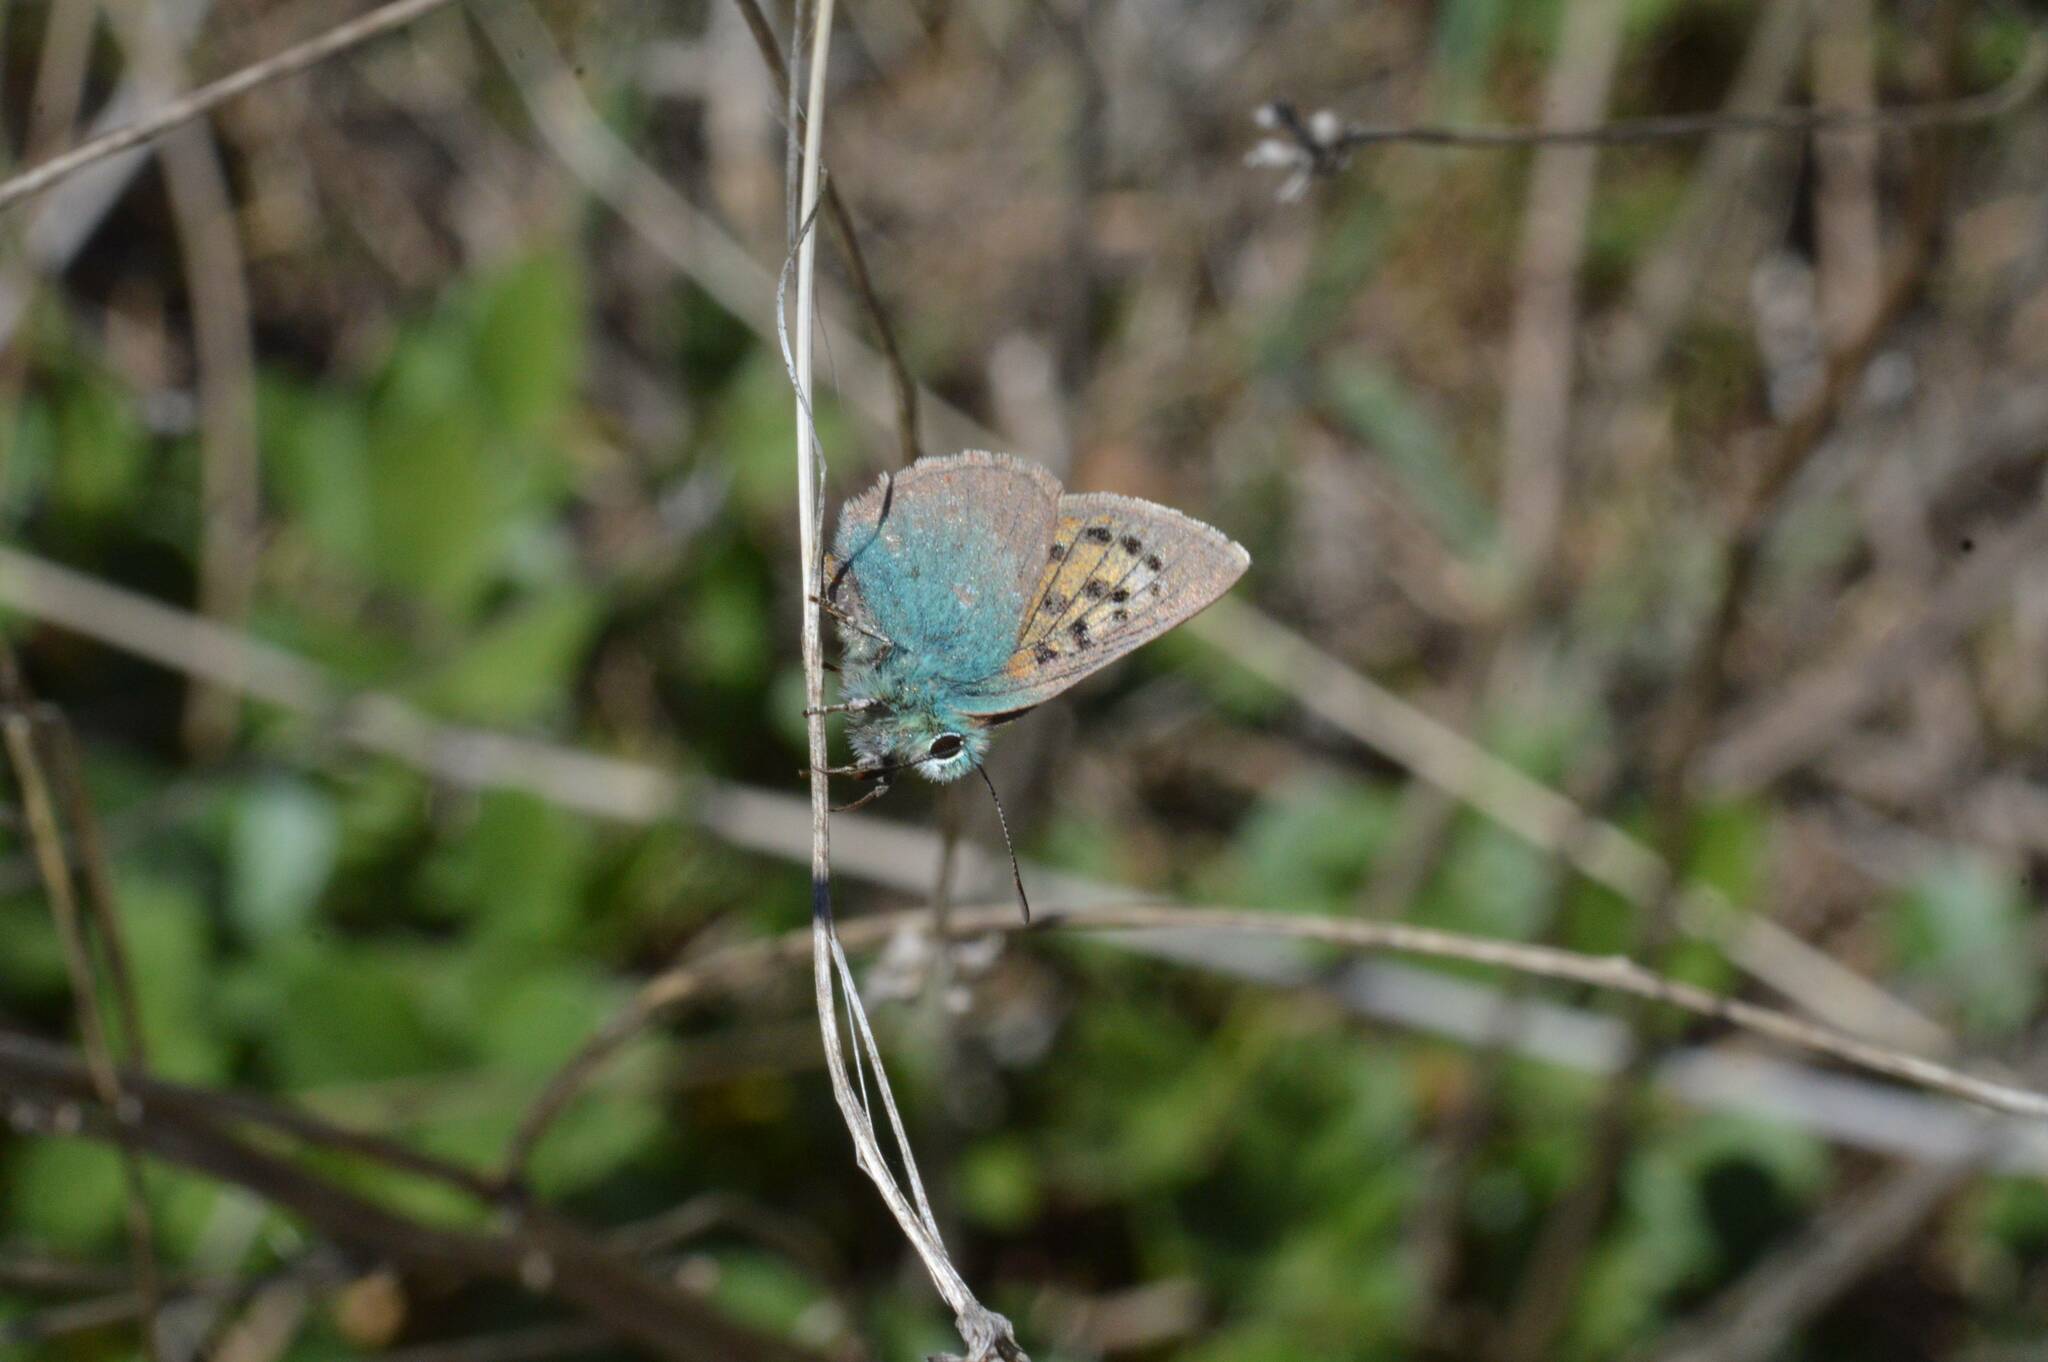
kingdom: Animalia
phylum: Arthropoda
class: Insecta
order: Lepidoptera
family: Lycaenidae
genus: Tomares
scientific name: Tomares ballus
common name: Provence hairstreak
